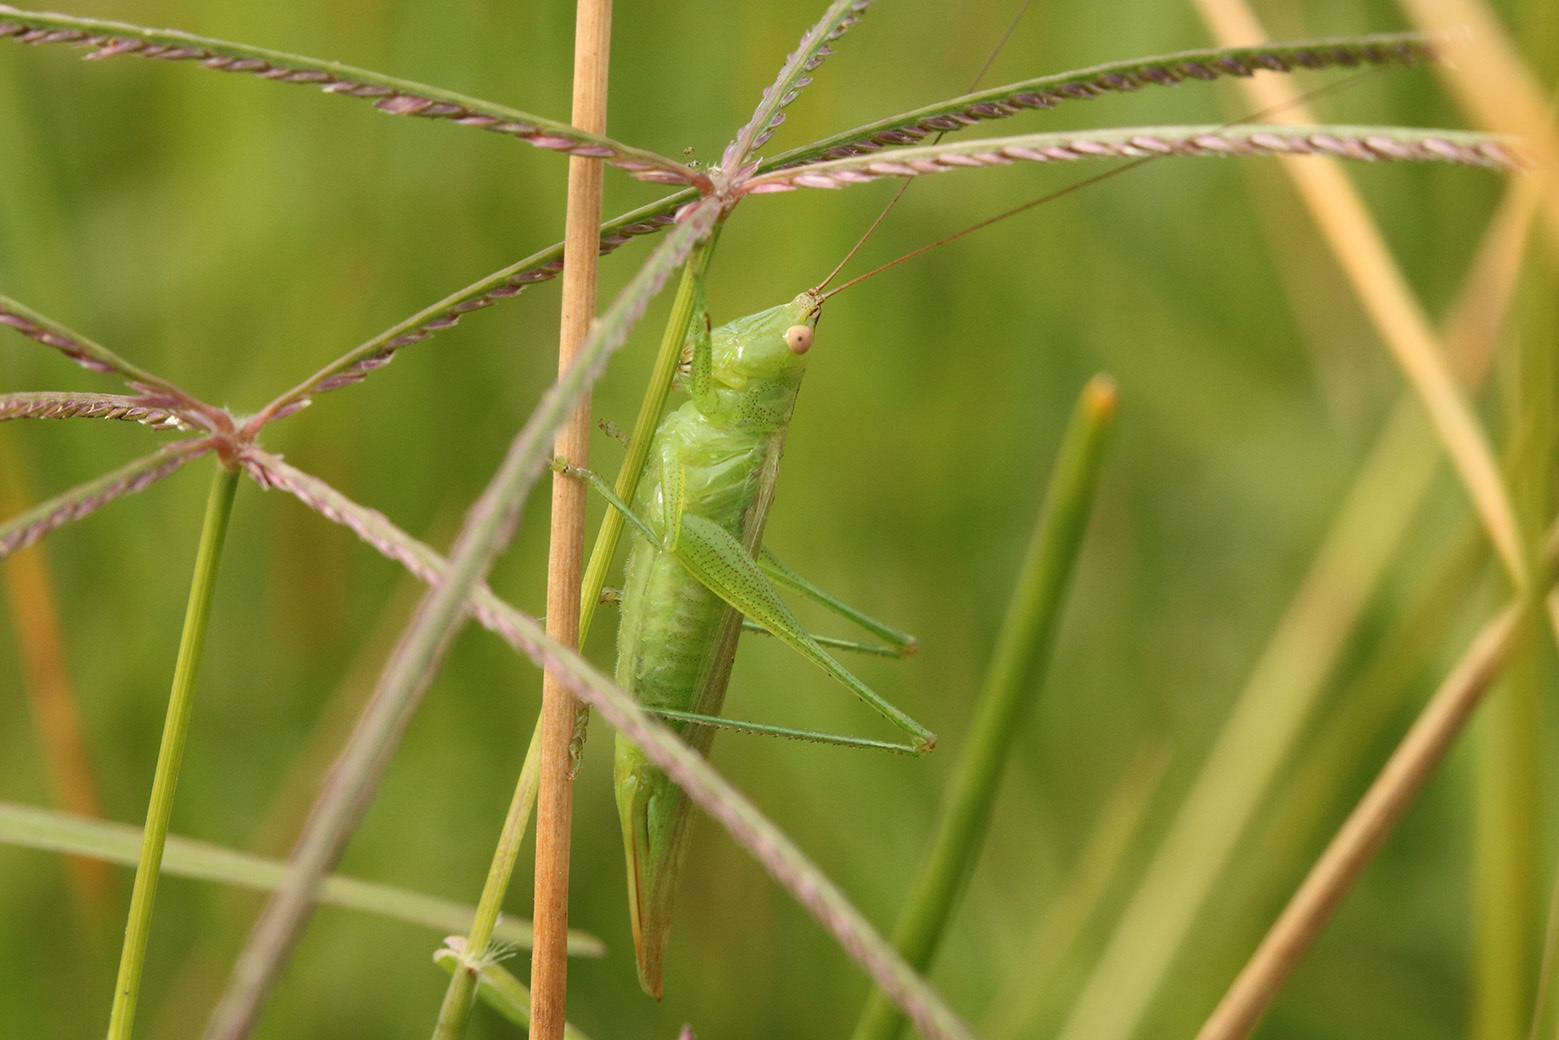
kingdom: Animalia
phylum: Arthropoda
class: Insecta
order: Orthoptera
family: Tettigoniidae
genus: Conocephalus
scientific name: Conocephalus longipes
